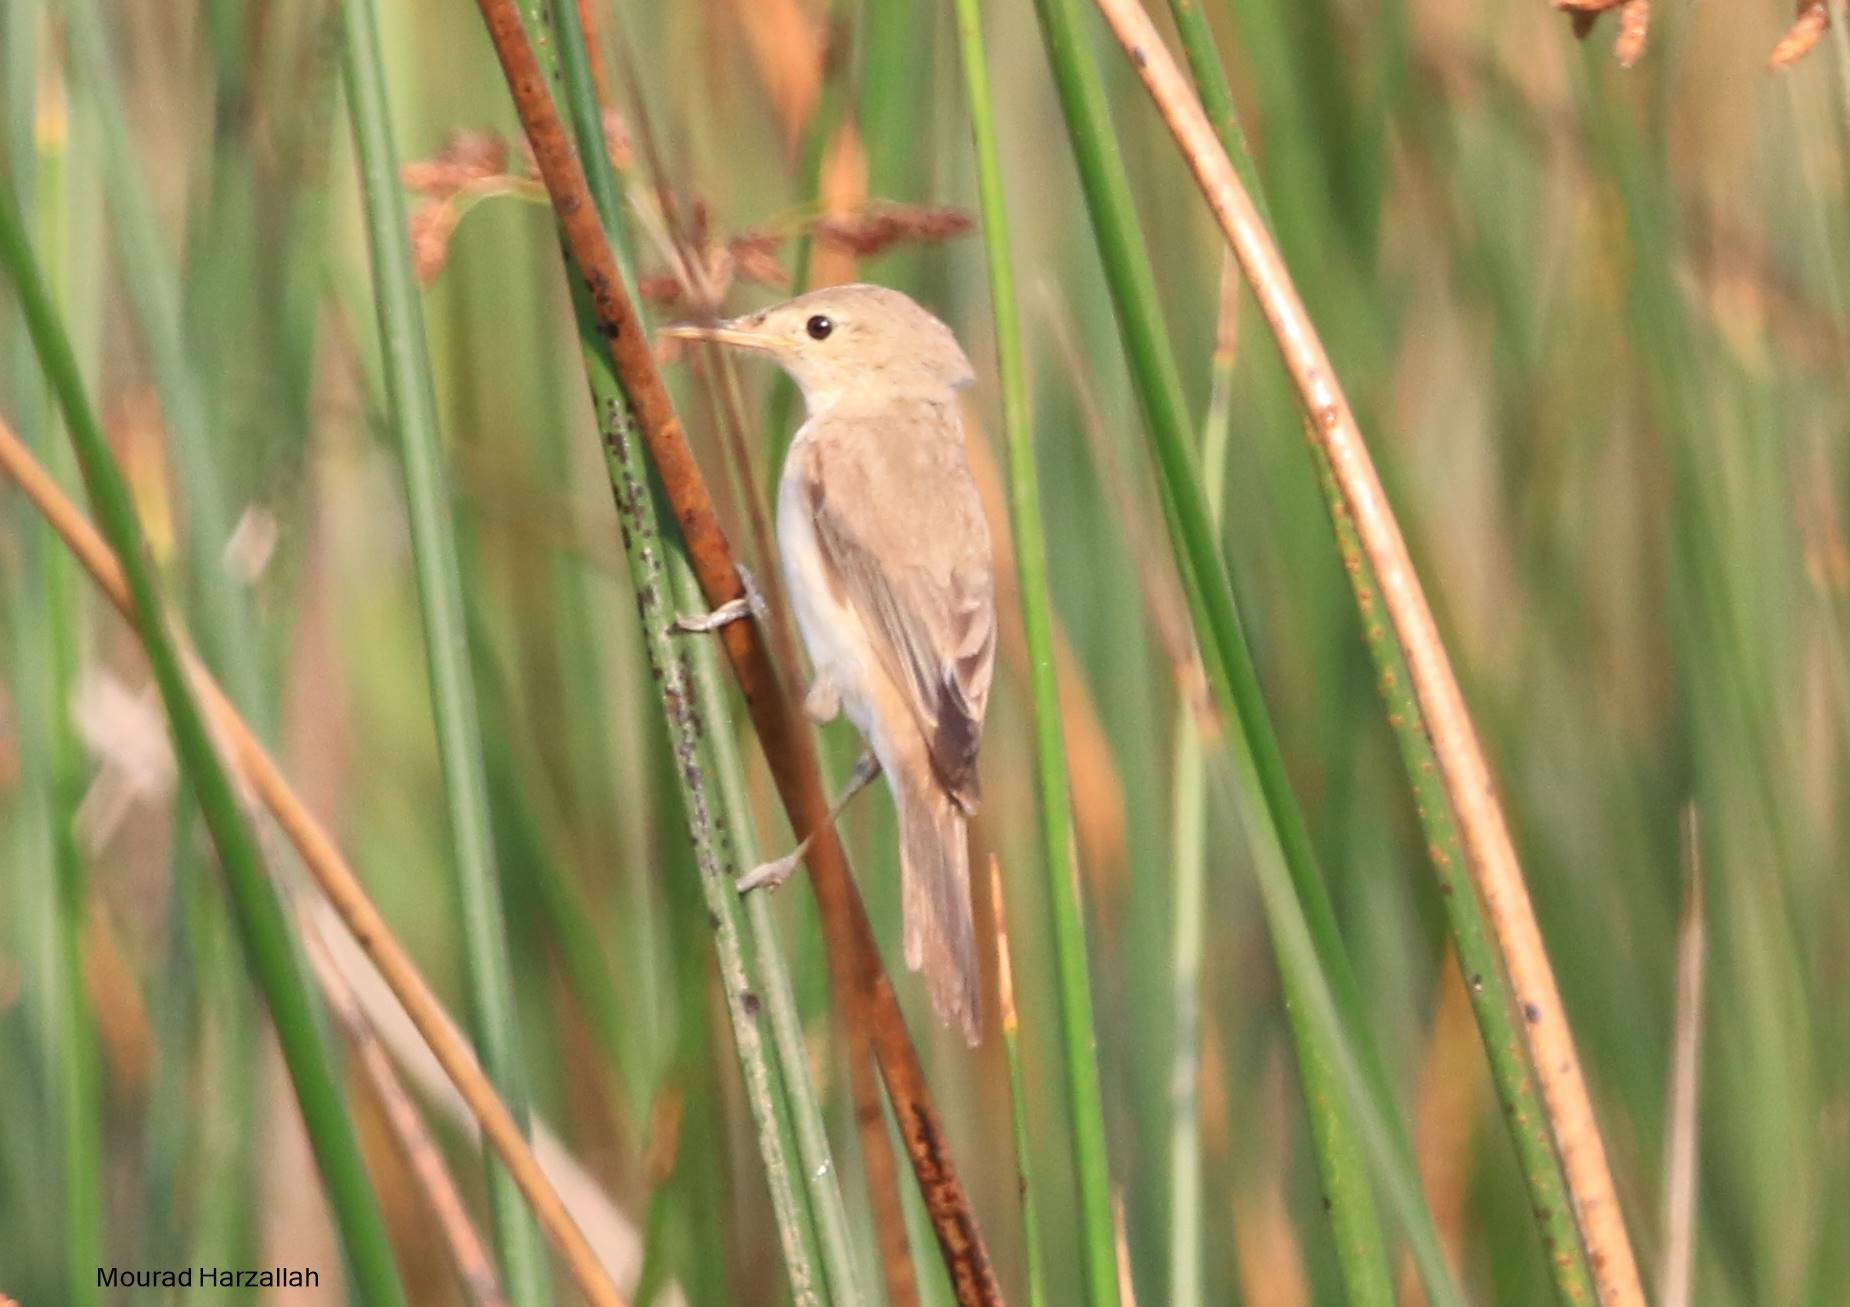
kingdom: Animalia
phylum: Chordata
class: Aves
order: Passeriformes
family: Acrocephalidae
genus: Acrocephalus
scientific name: Acrocephalus scirpaceus
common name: Eurasian reed warbler
